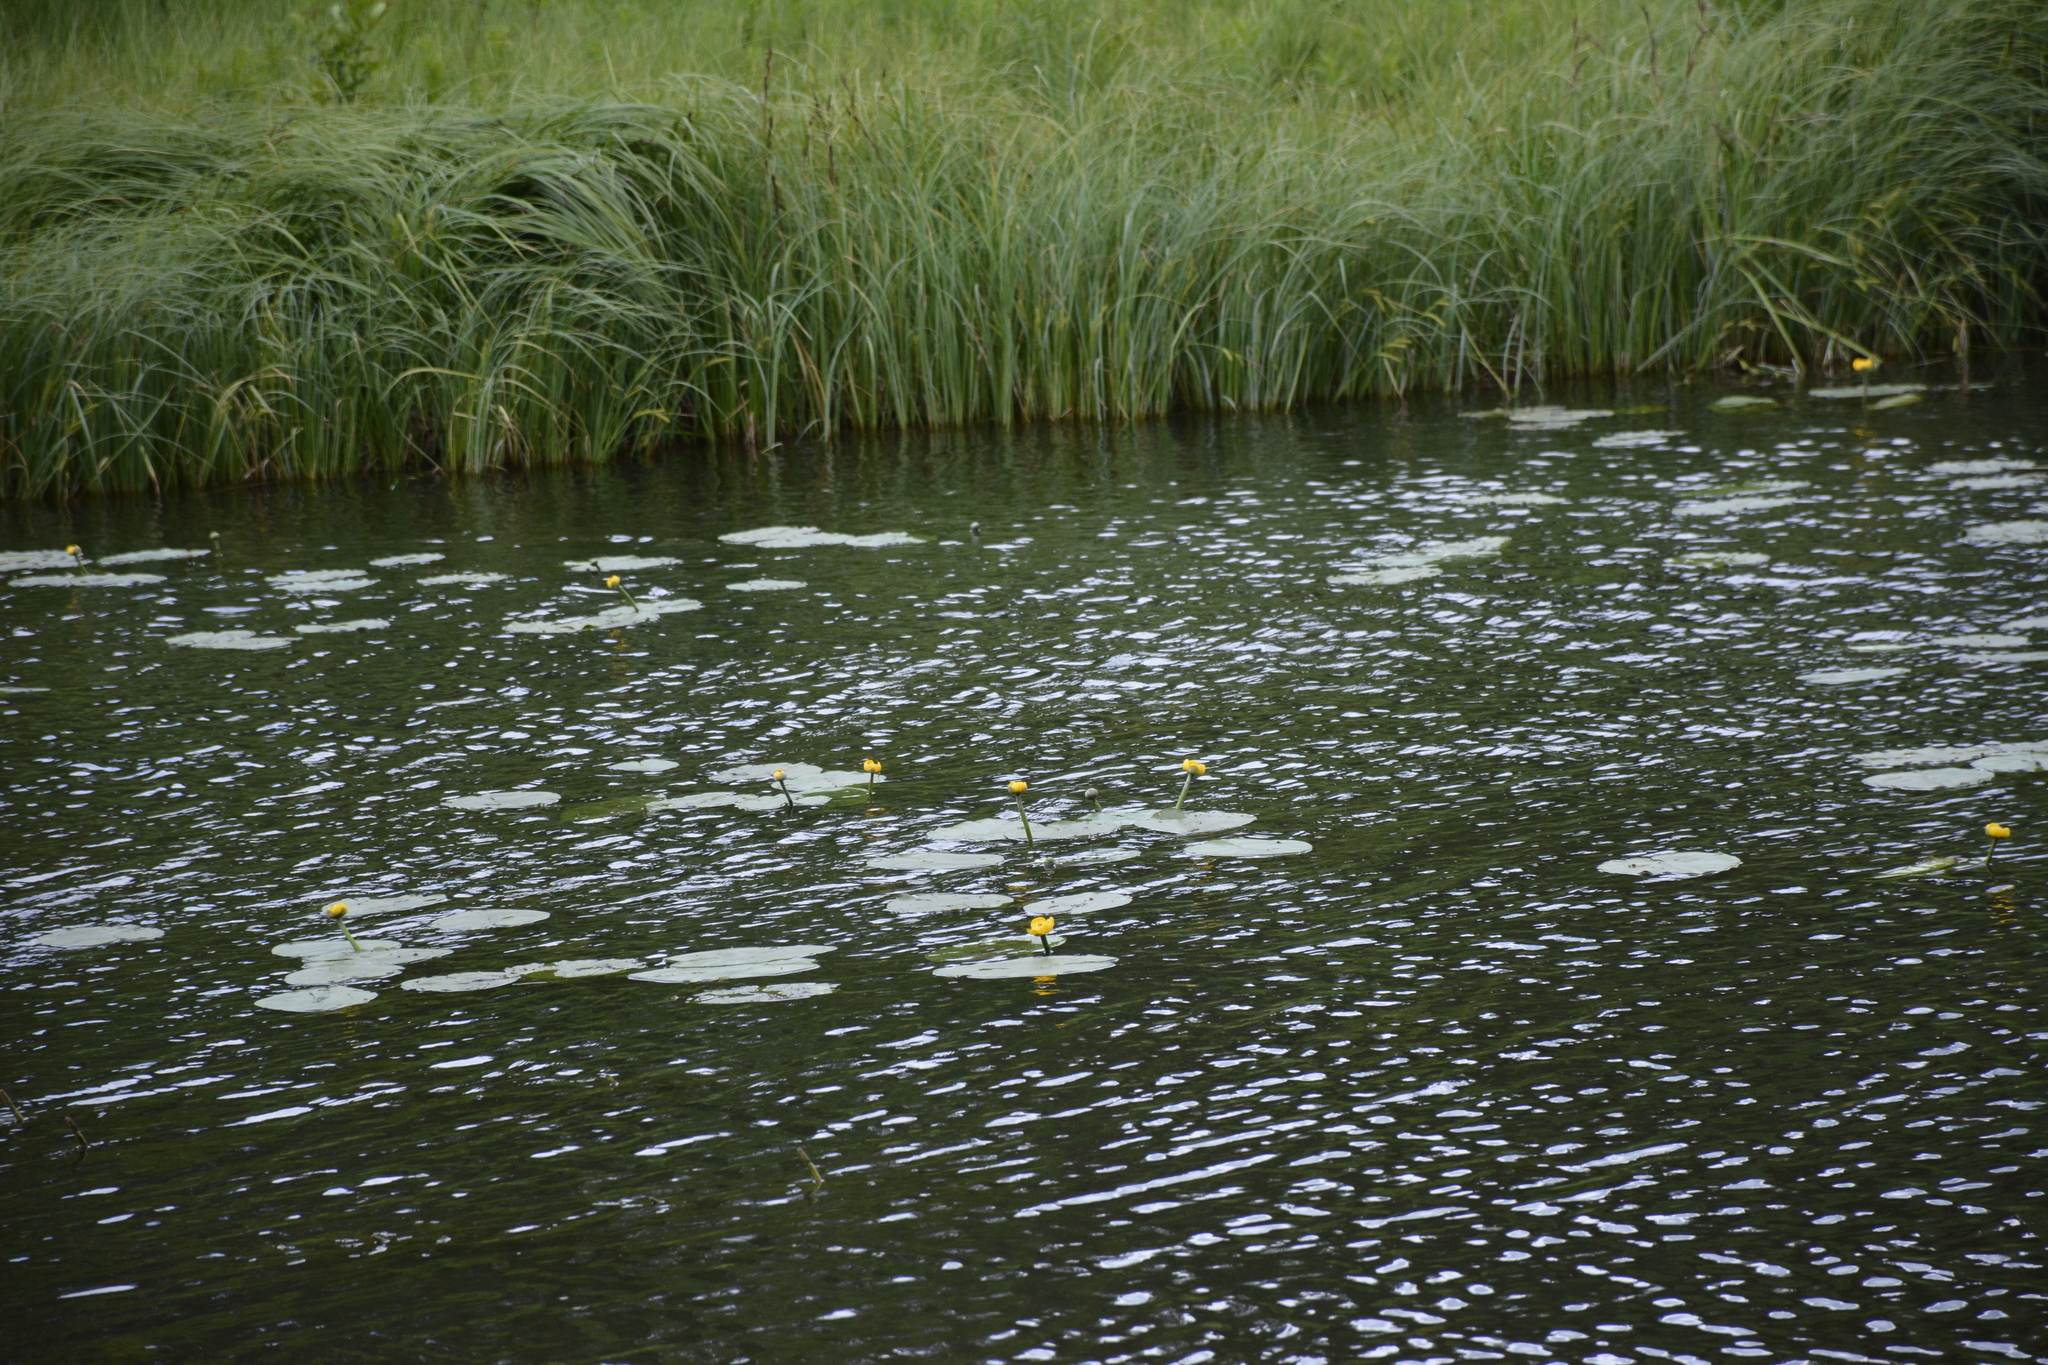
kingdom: Plantae
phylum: Tracheophyta
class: Magnoliopsida
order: Nymphaeales
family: Nymphaeaceae
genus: Nuphar
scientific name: Nuphar lutea
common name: Yellow water-lily
